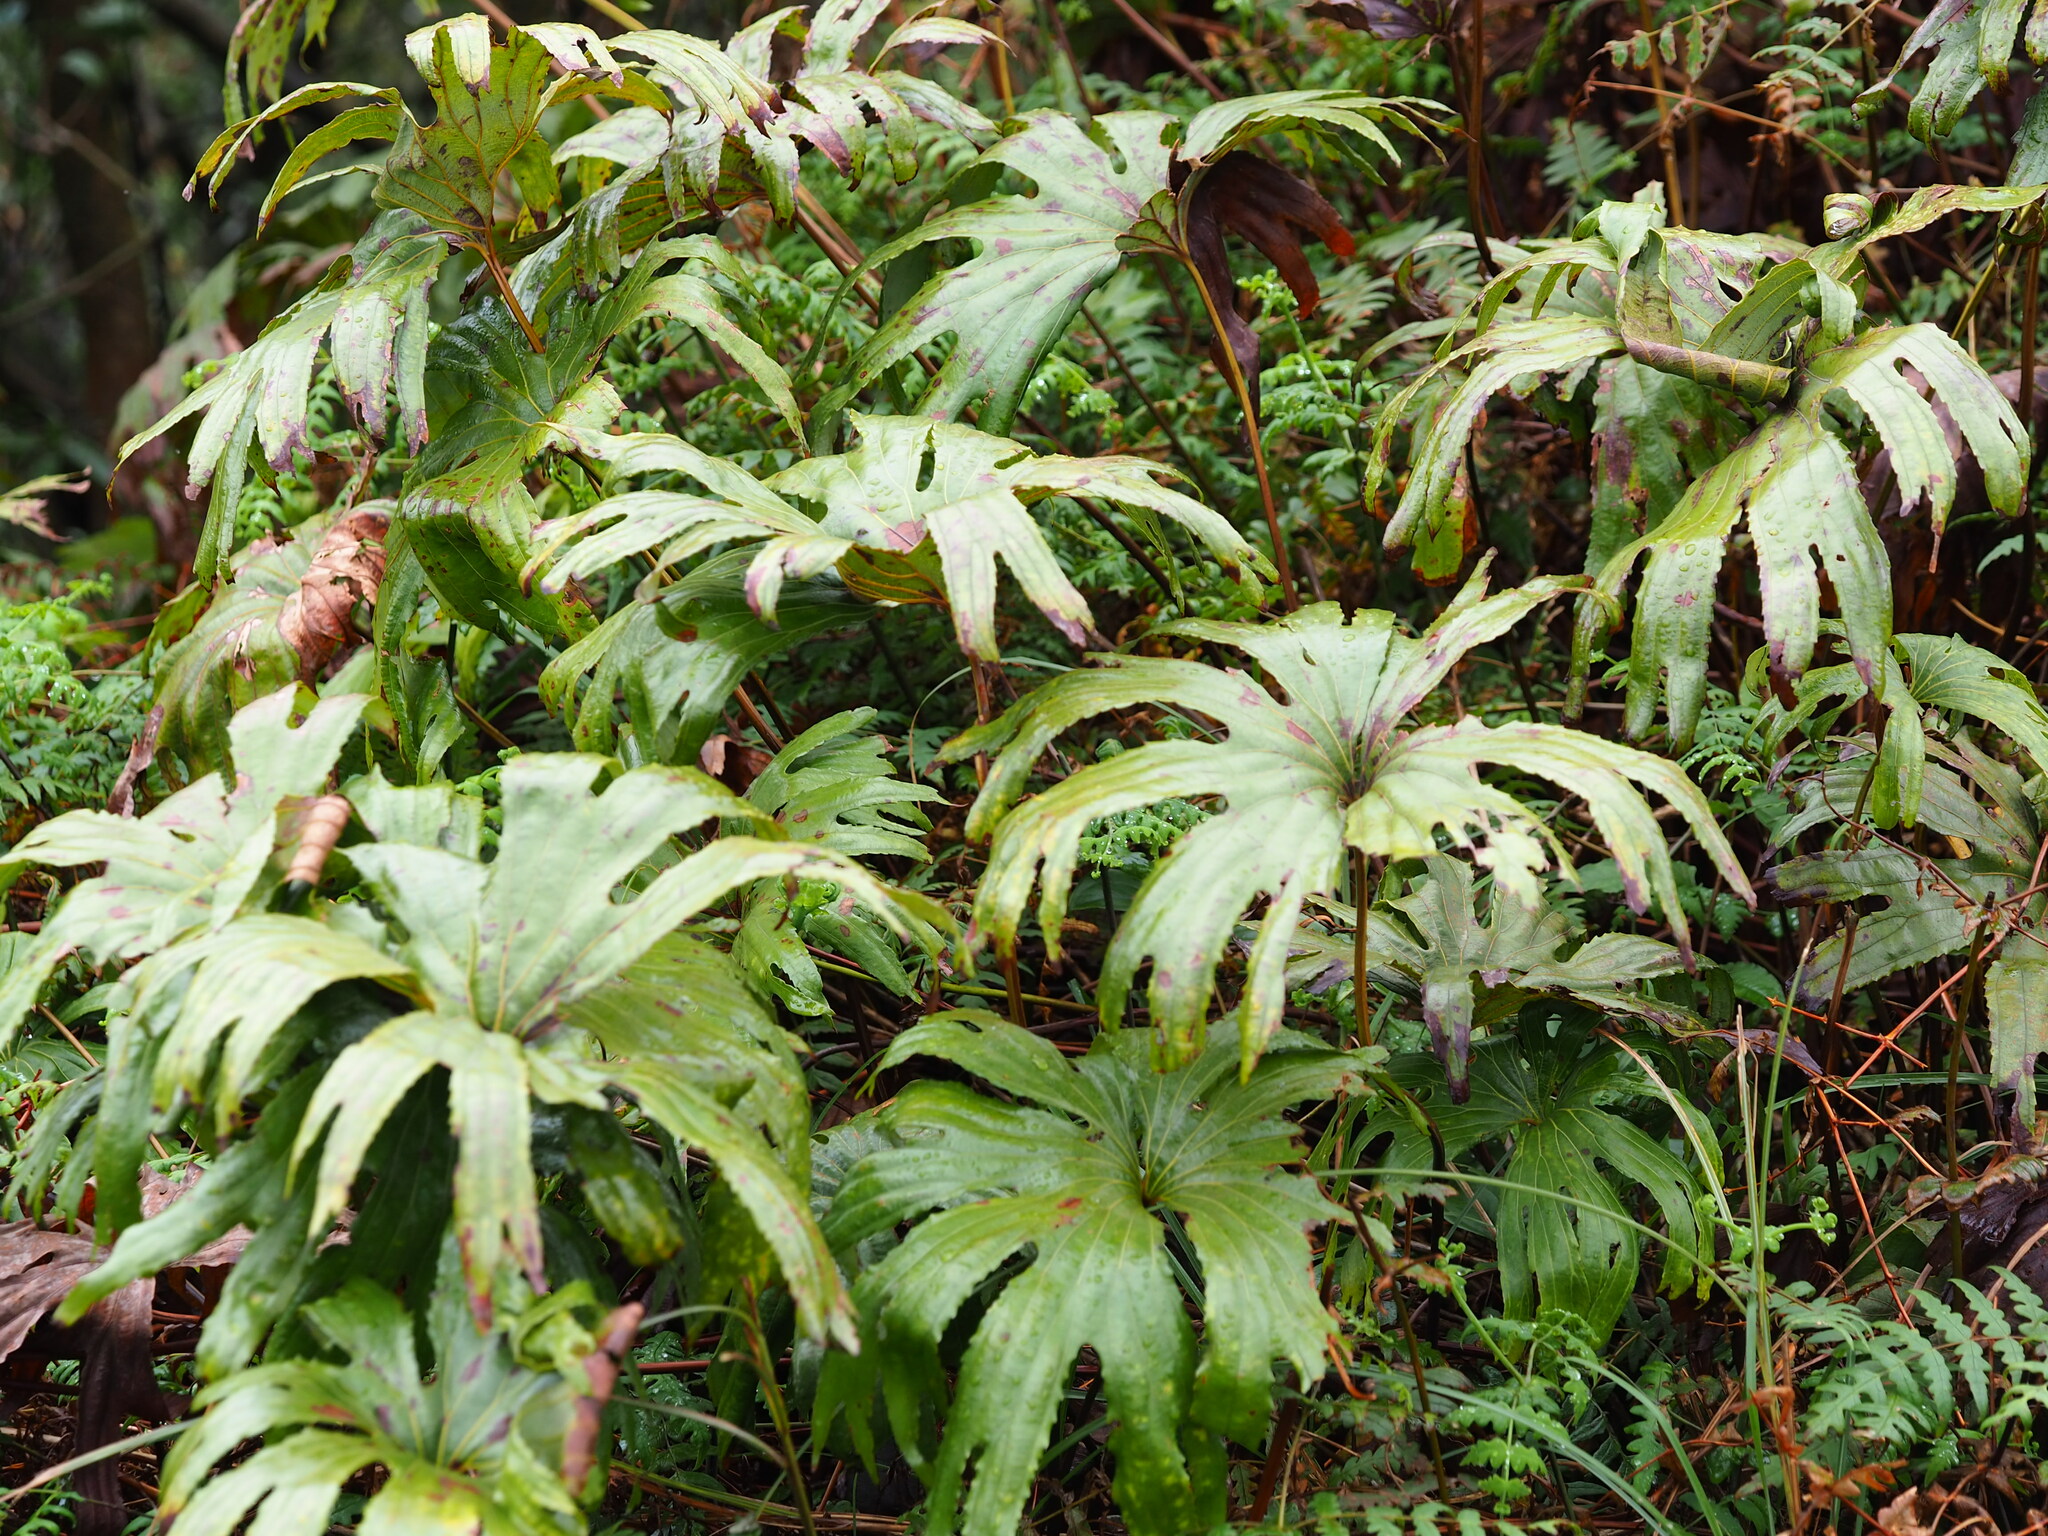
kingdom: Plantae
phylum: Tracheophyta
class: Polypodiopsida
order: Gleicheniales
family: Dipteridaceae
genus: Dipteris
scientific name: Dipteris conjugata
